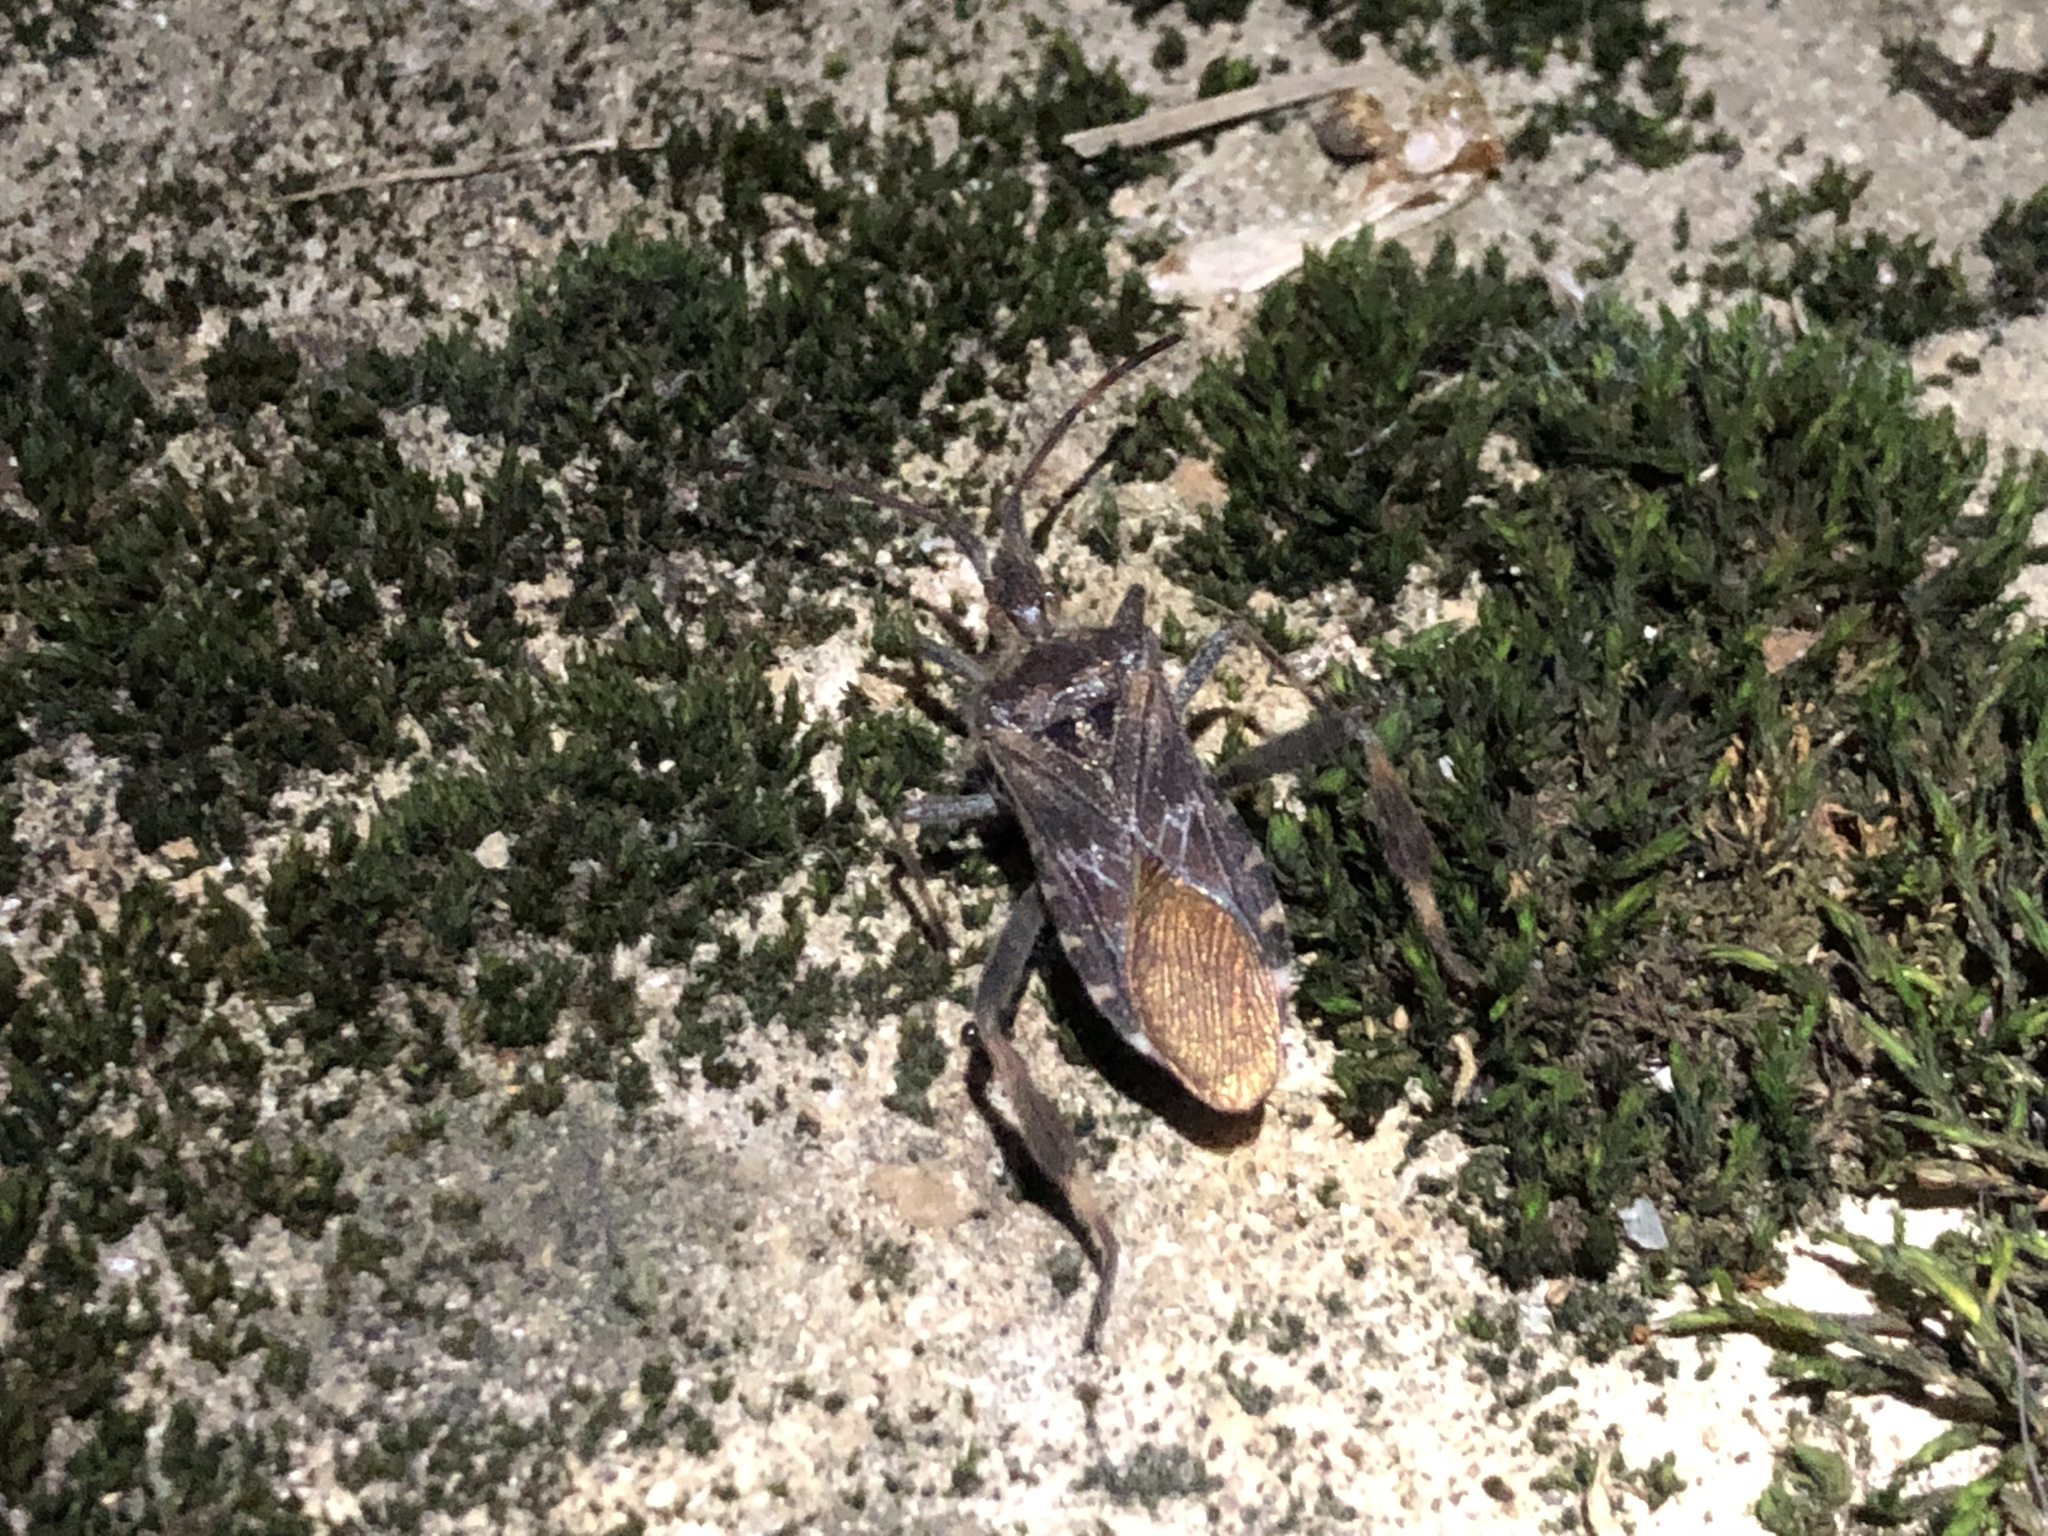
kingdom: Animalia
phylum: Arthropoda
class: Insecta
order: Hemiptera
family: Coreidae
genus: Leptoglossus
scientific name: Leptoglossus occidentalis
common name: Western conifer-seed bug
